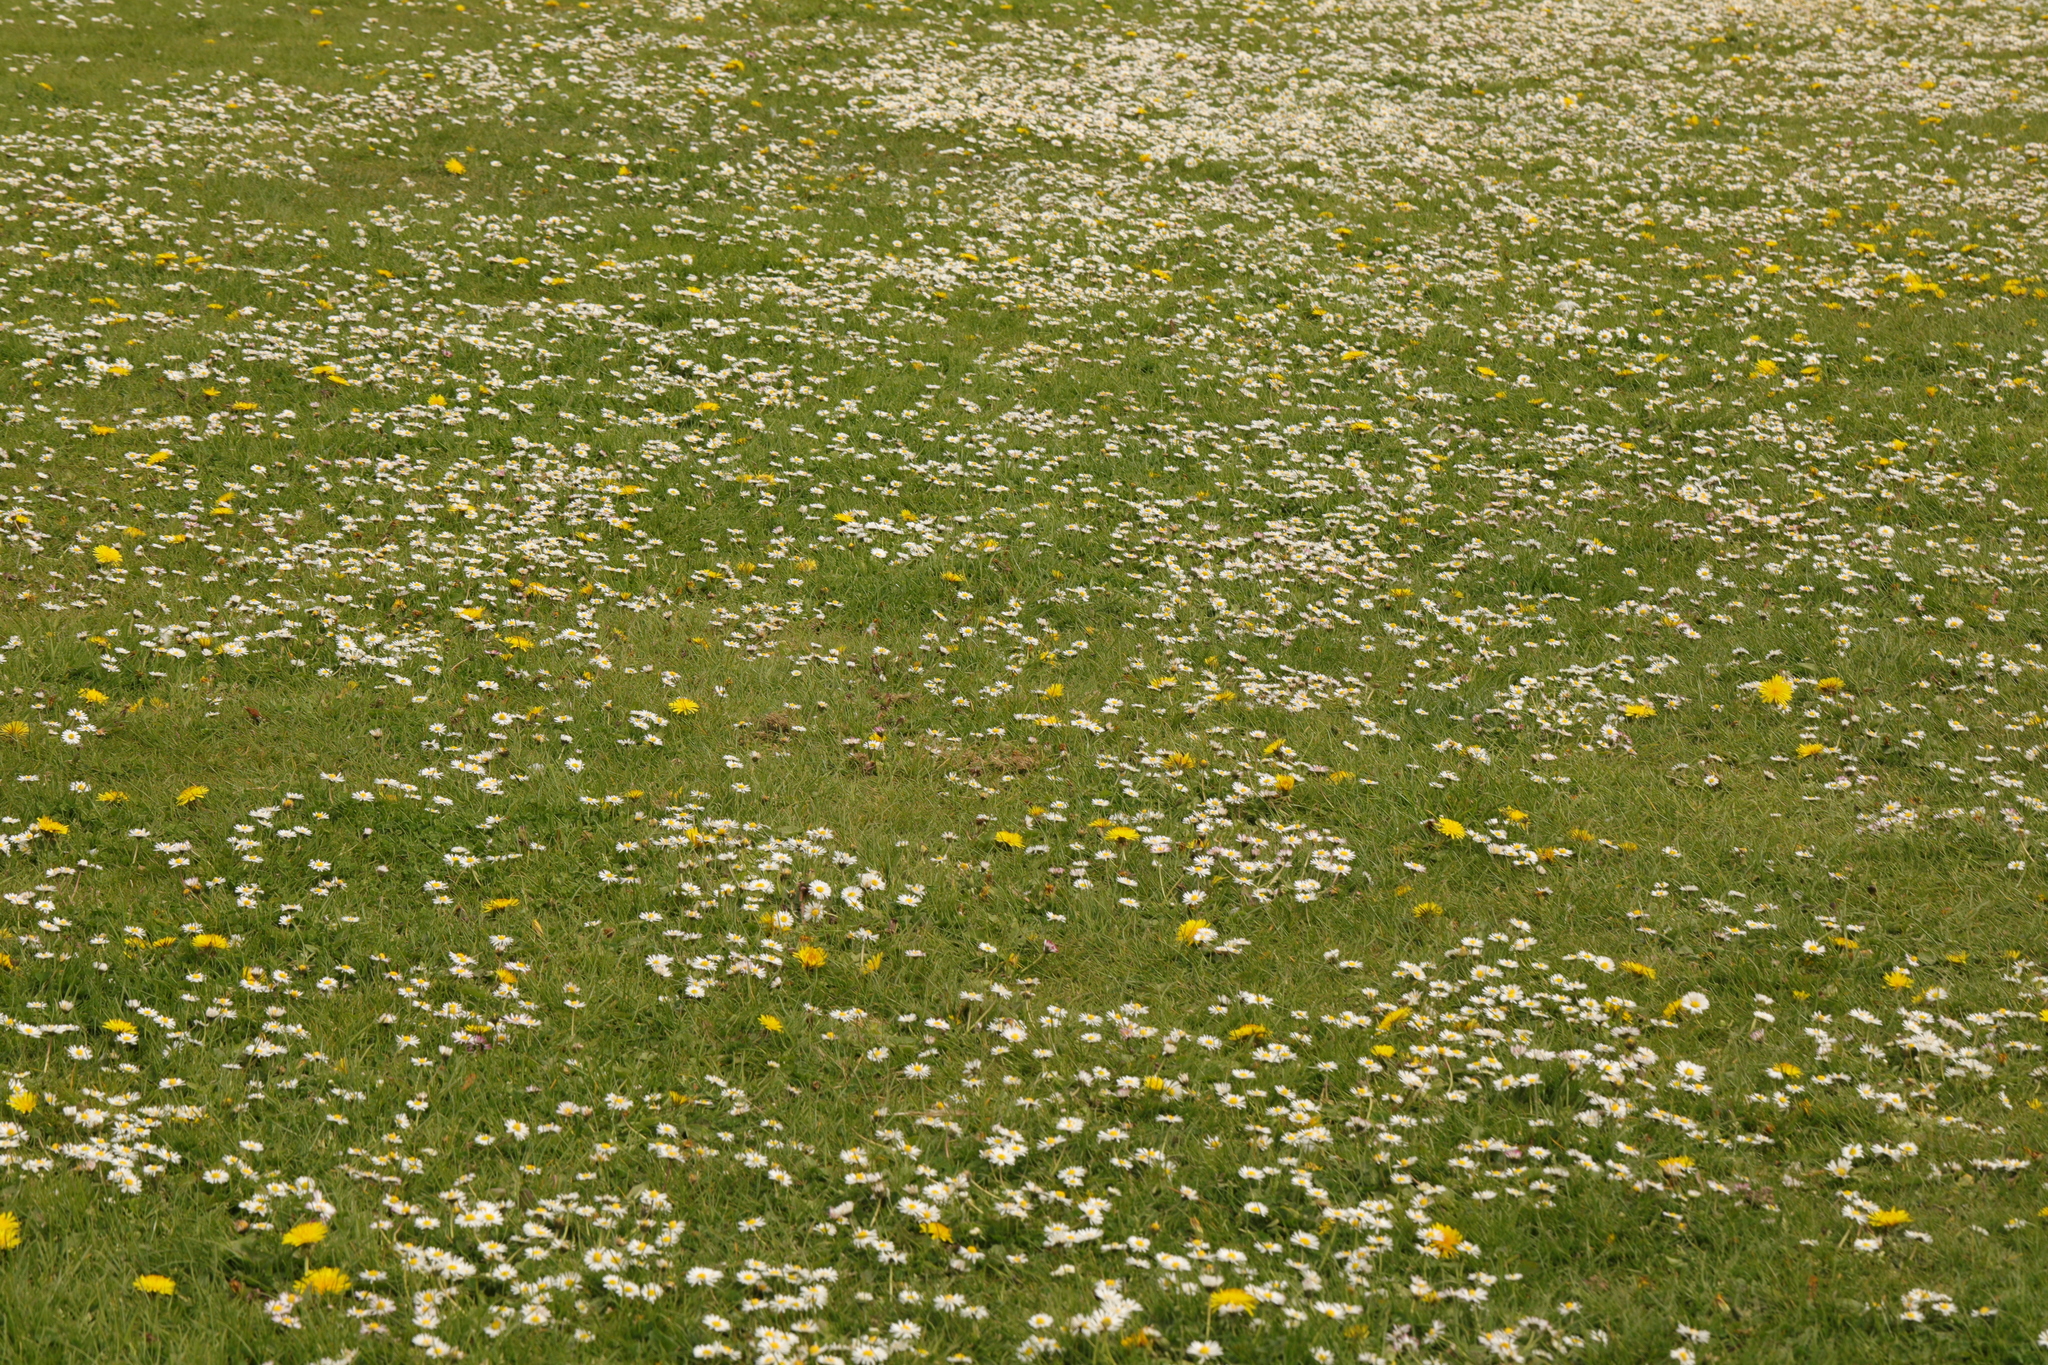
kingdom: Plantae
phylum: Tracheophyta
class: Magnoliopsida
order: Asterales
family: Asteraceae
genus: Bellis
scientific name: Bellis perennis
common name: Lawndaisy
